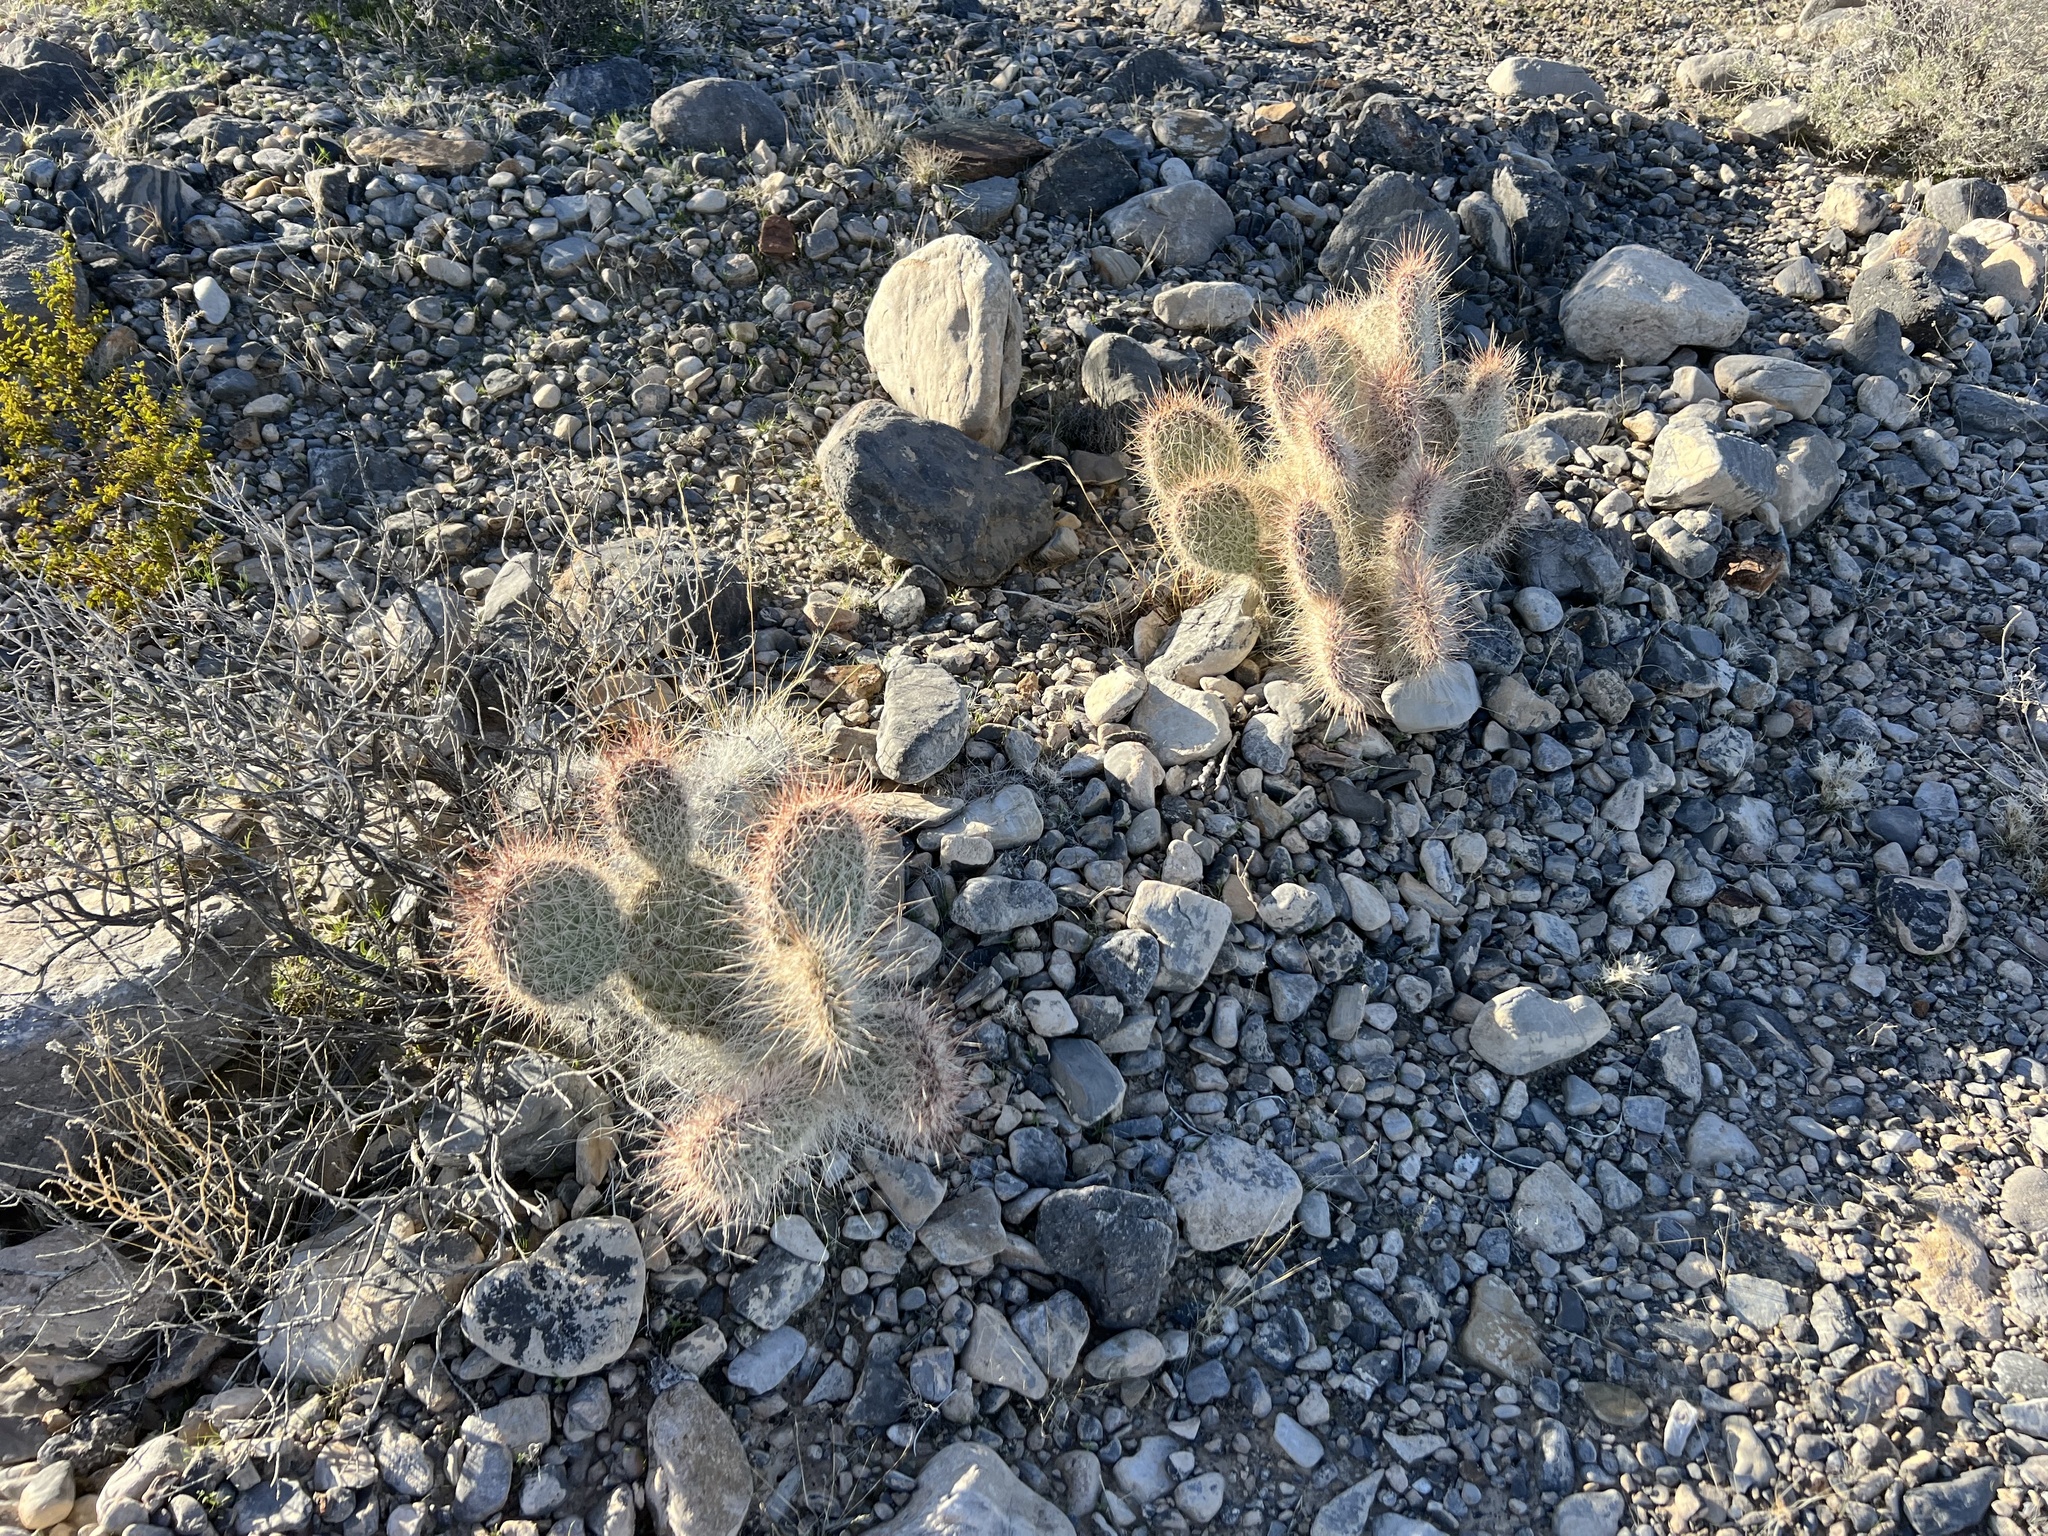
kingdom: Plantae
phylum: Tracheophyta
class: Magnoliopsida
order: Caryophyllales
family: Cactaceae
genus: Opuntia
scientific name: Opuntia polyacantha
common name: Plains prickly-pear
